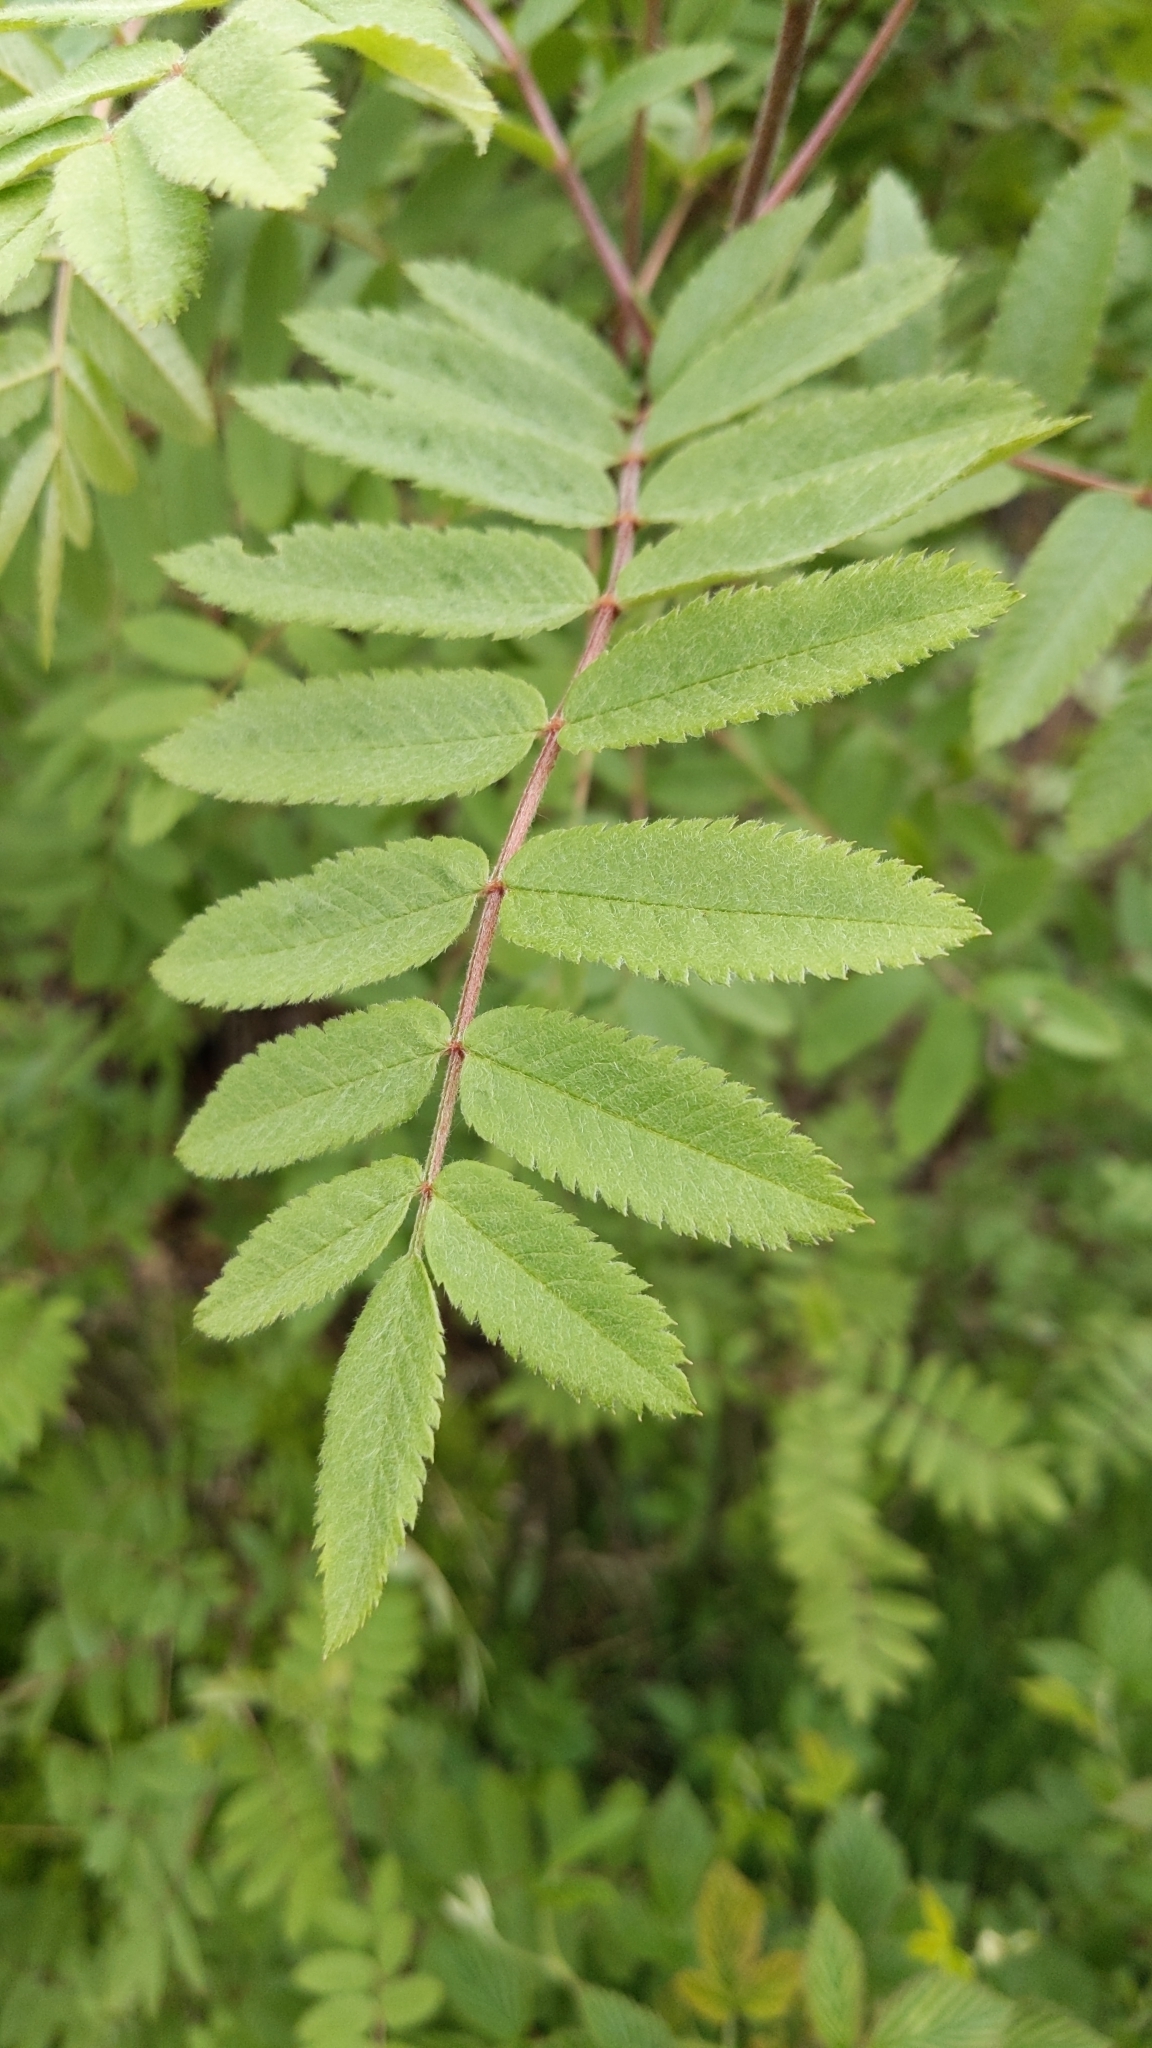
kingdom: Plantae
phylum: Tracheophyta
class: Magnoliopsida
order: Rosales
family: Rosaceae
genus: Sorbus
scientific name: Sorbus aucuparia
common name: Rowan
